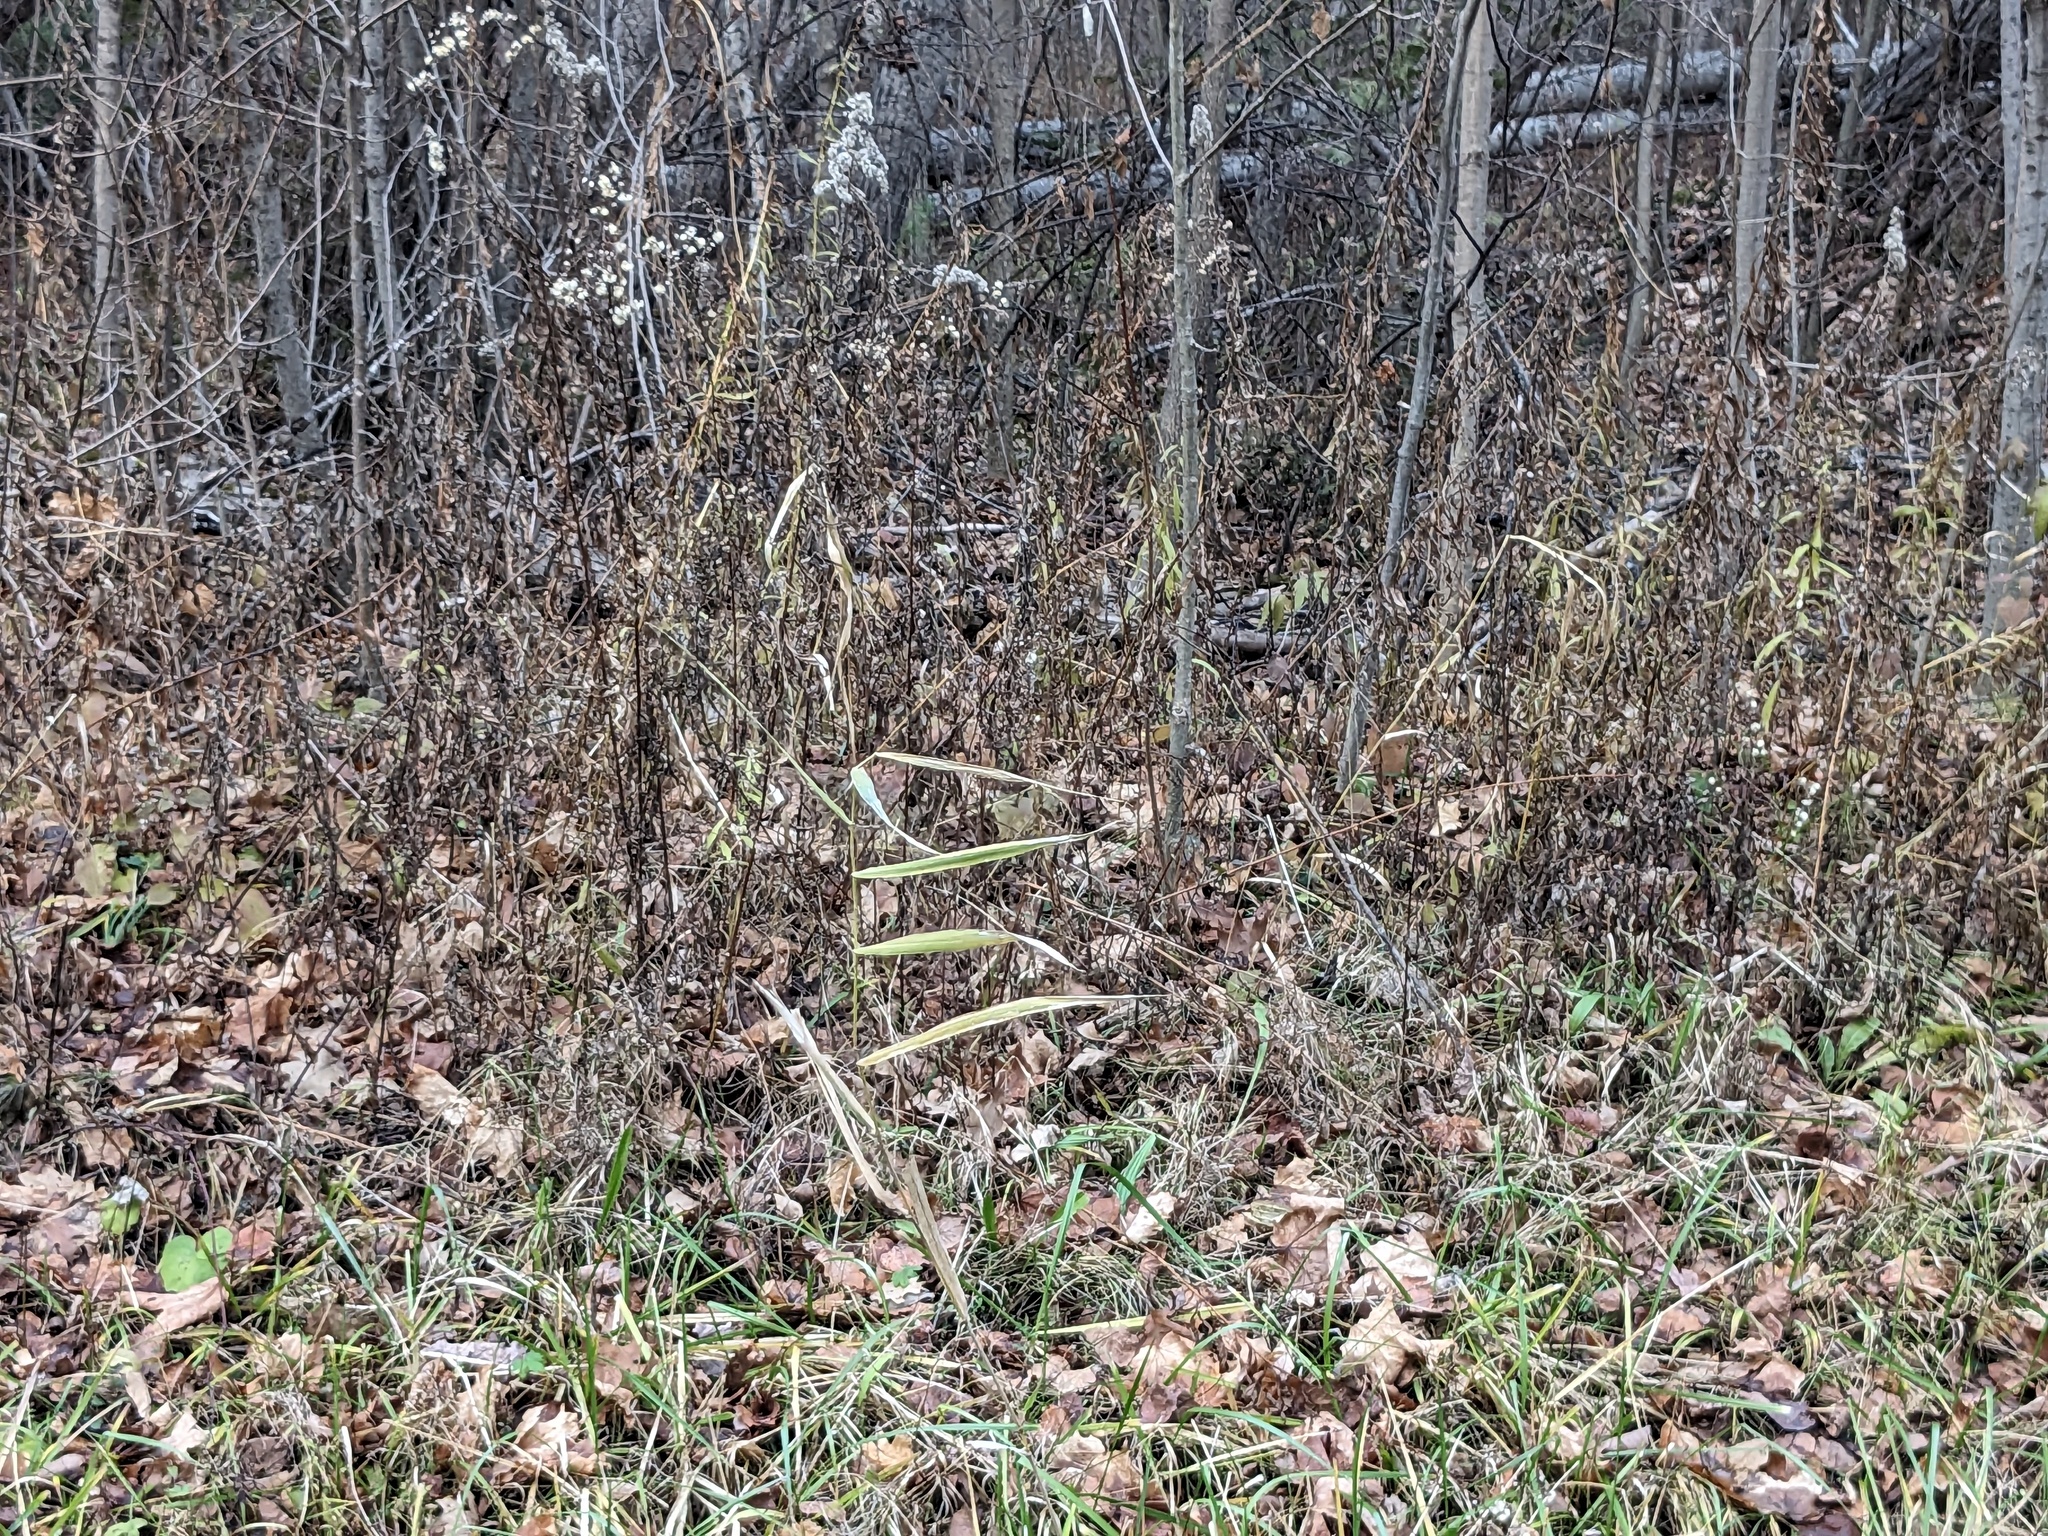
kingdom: Plantae
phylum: Tracheophyta
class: Liliopsida
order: Poales
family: Poaceae
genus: Phragmites
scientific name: Phragmites australis
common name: Common reed
